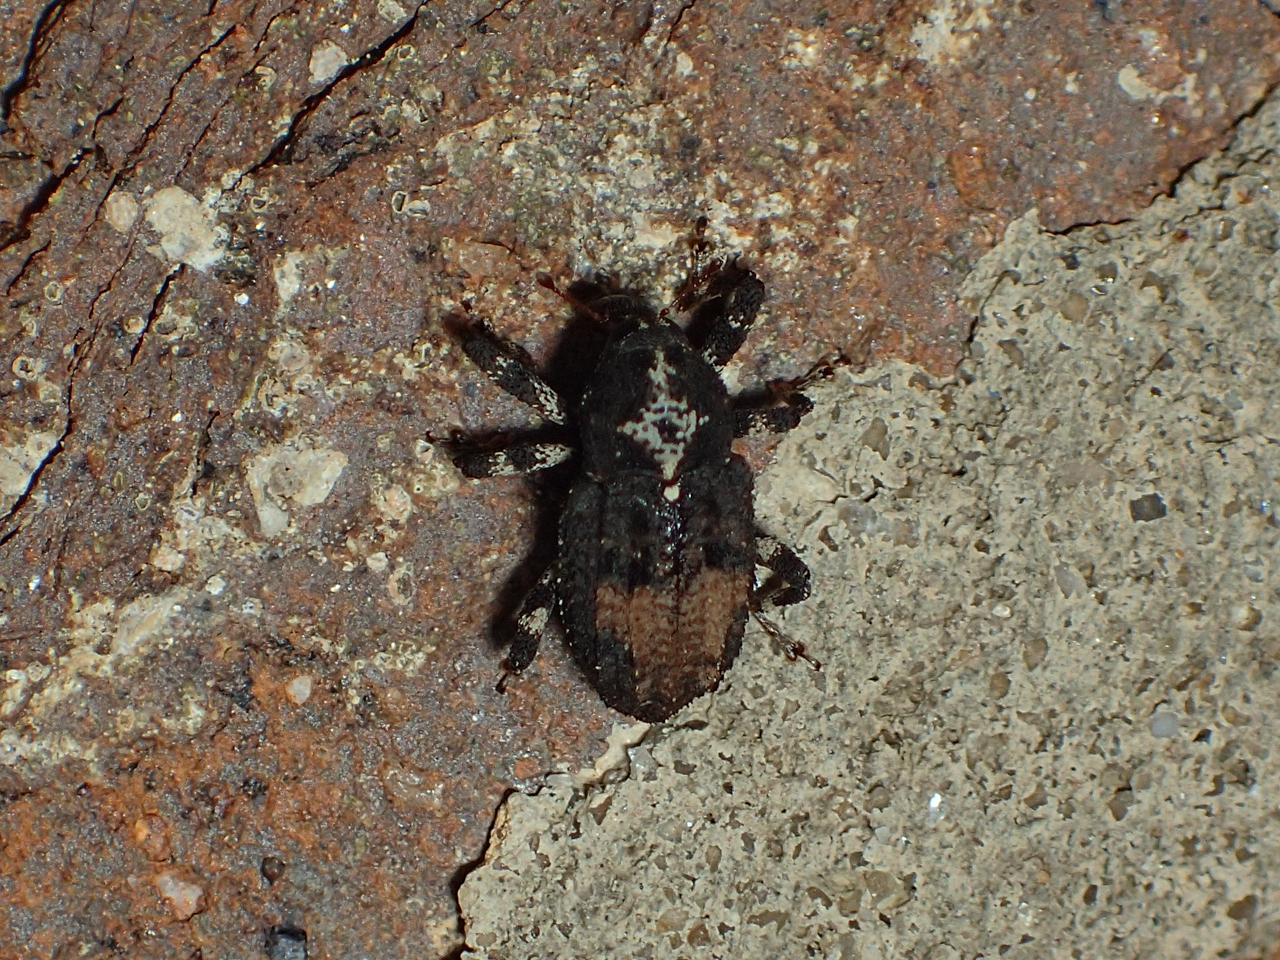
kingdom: Animalia
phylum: Arthropoda
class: Insecta
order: Coleoptera
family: Curculionidae
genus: Cophes
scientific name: Cophes obtentus
